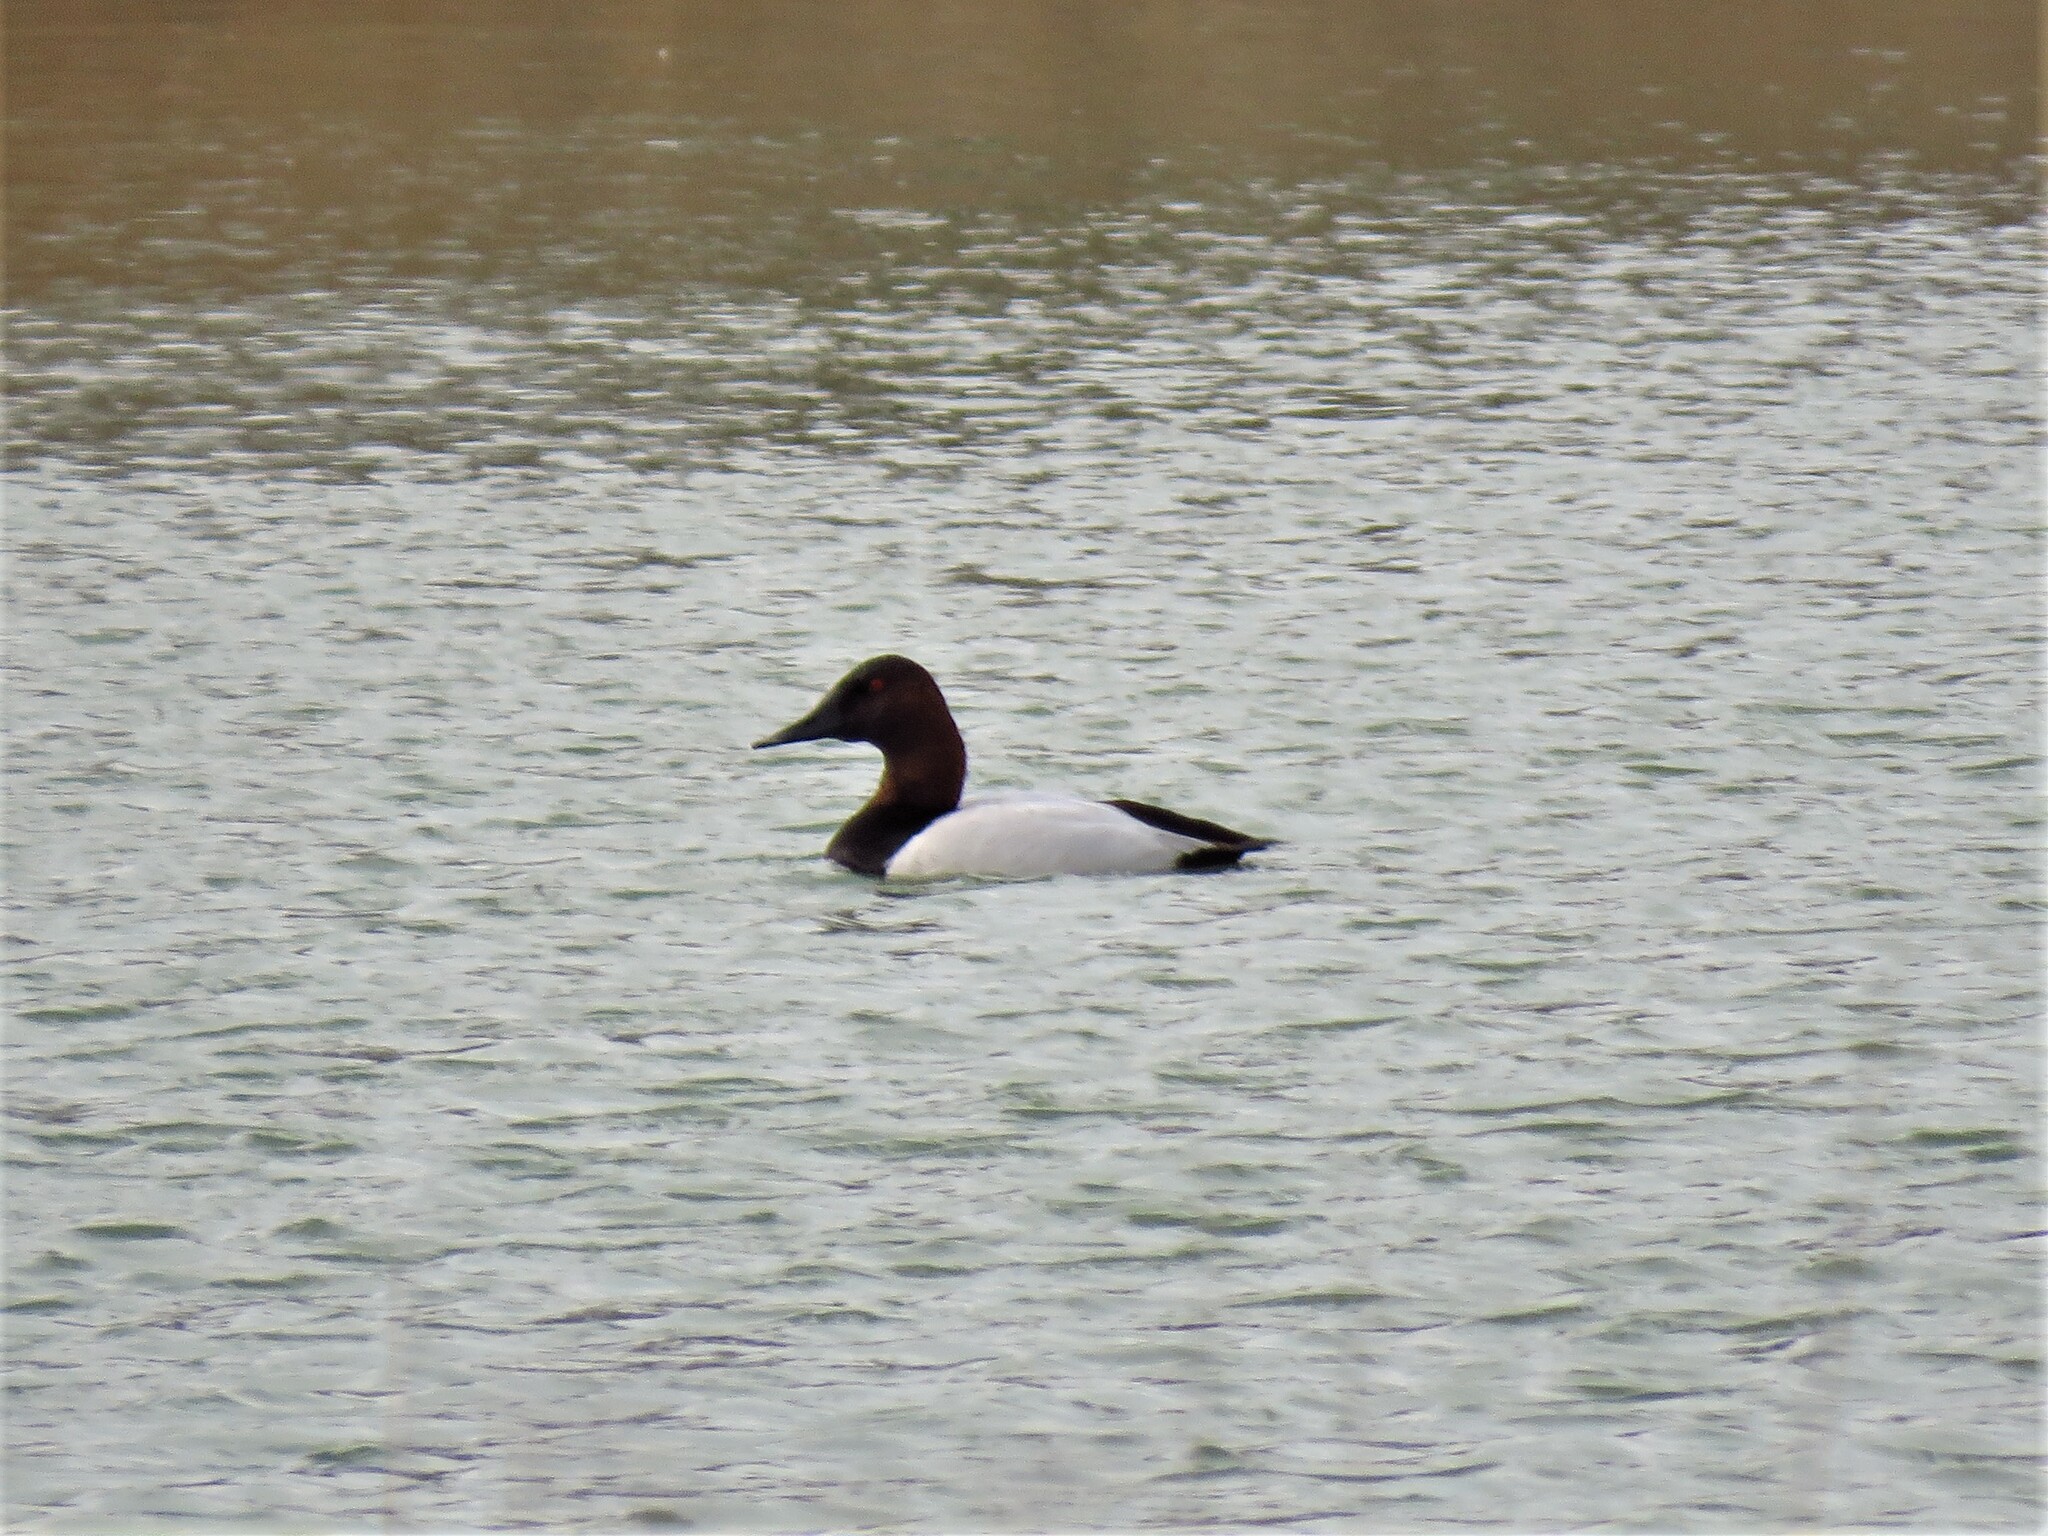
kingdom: Animalia
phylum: Chordata
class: Aves
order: Anseriformes
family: Anatidae
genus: Aythya
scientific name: Aythya valisineria
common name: Canvasback
